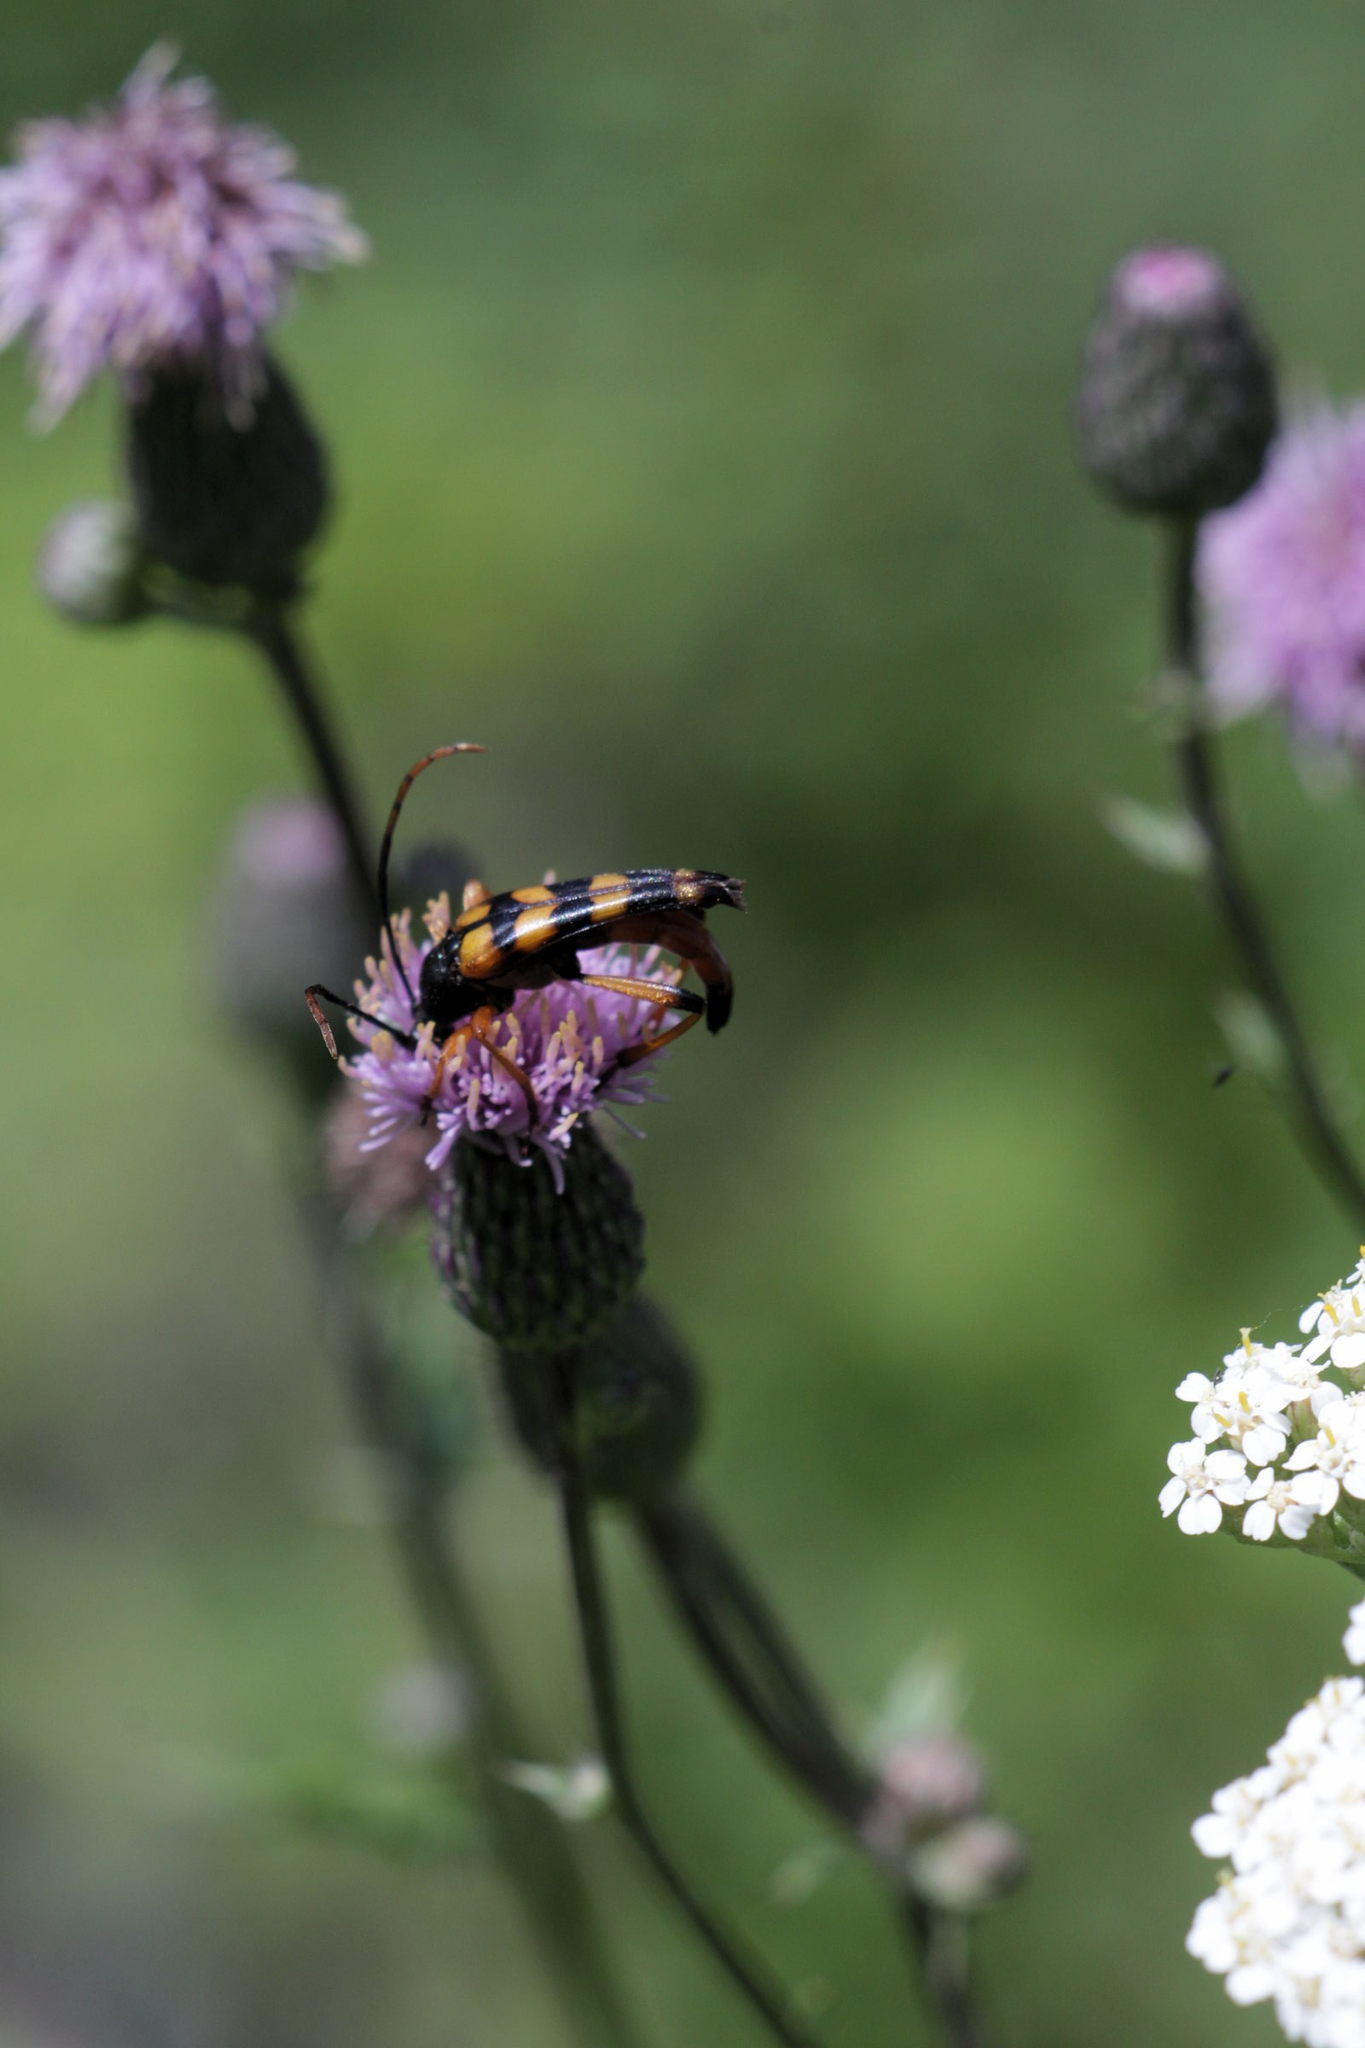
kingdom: Animalia
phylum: Arthropoda
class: Insecta
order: Coleoptera
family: Cerambycidae
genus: Strangalia
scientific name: Strangalia attenuata
